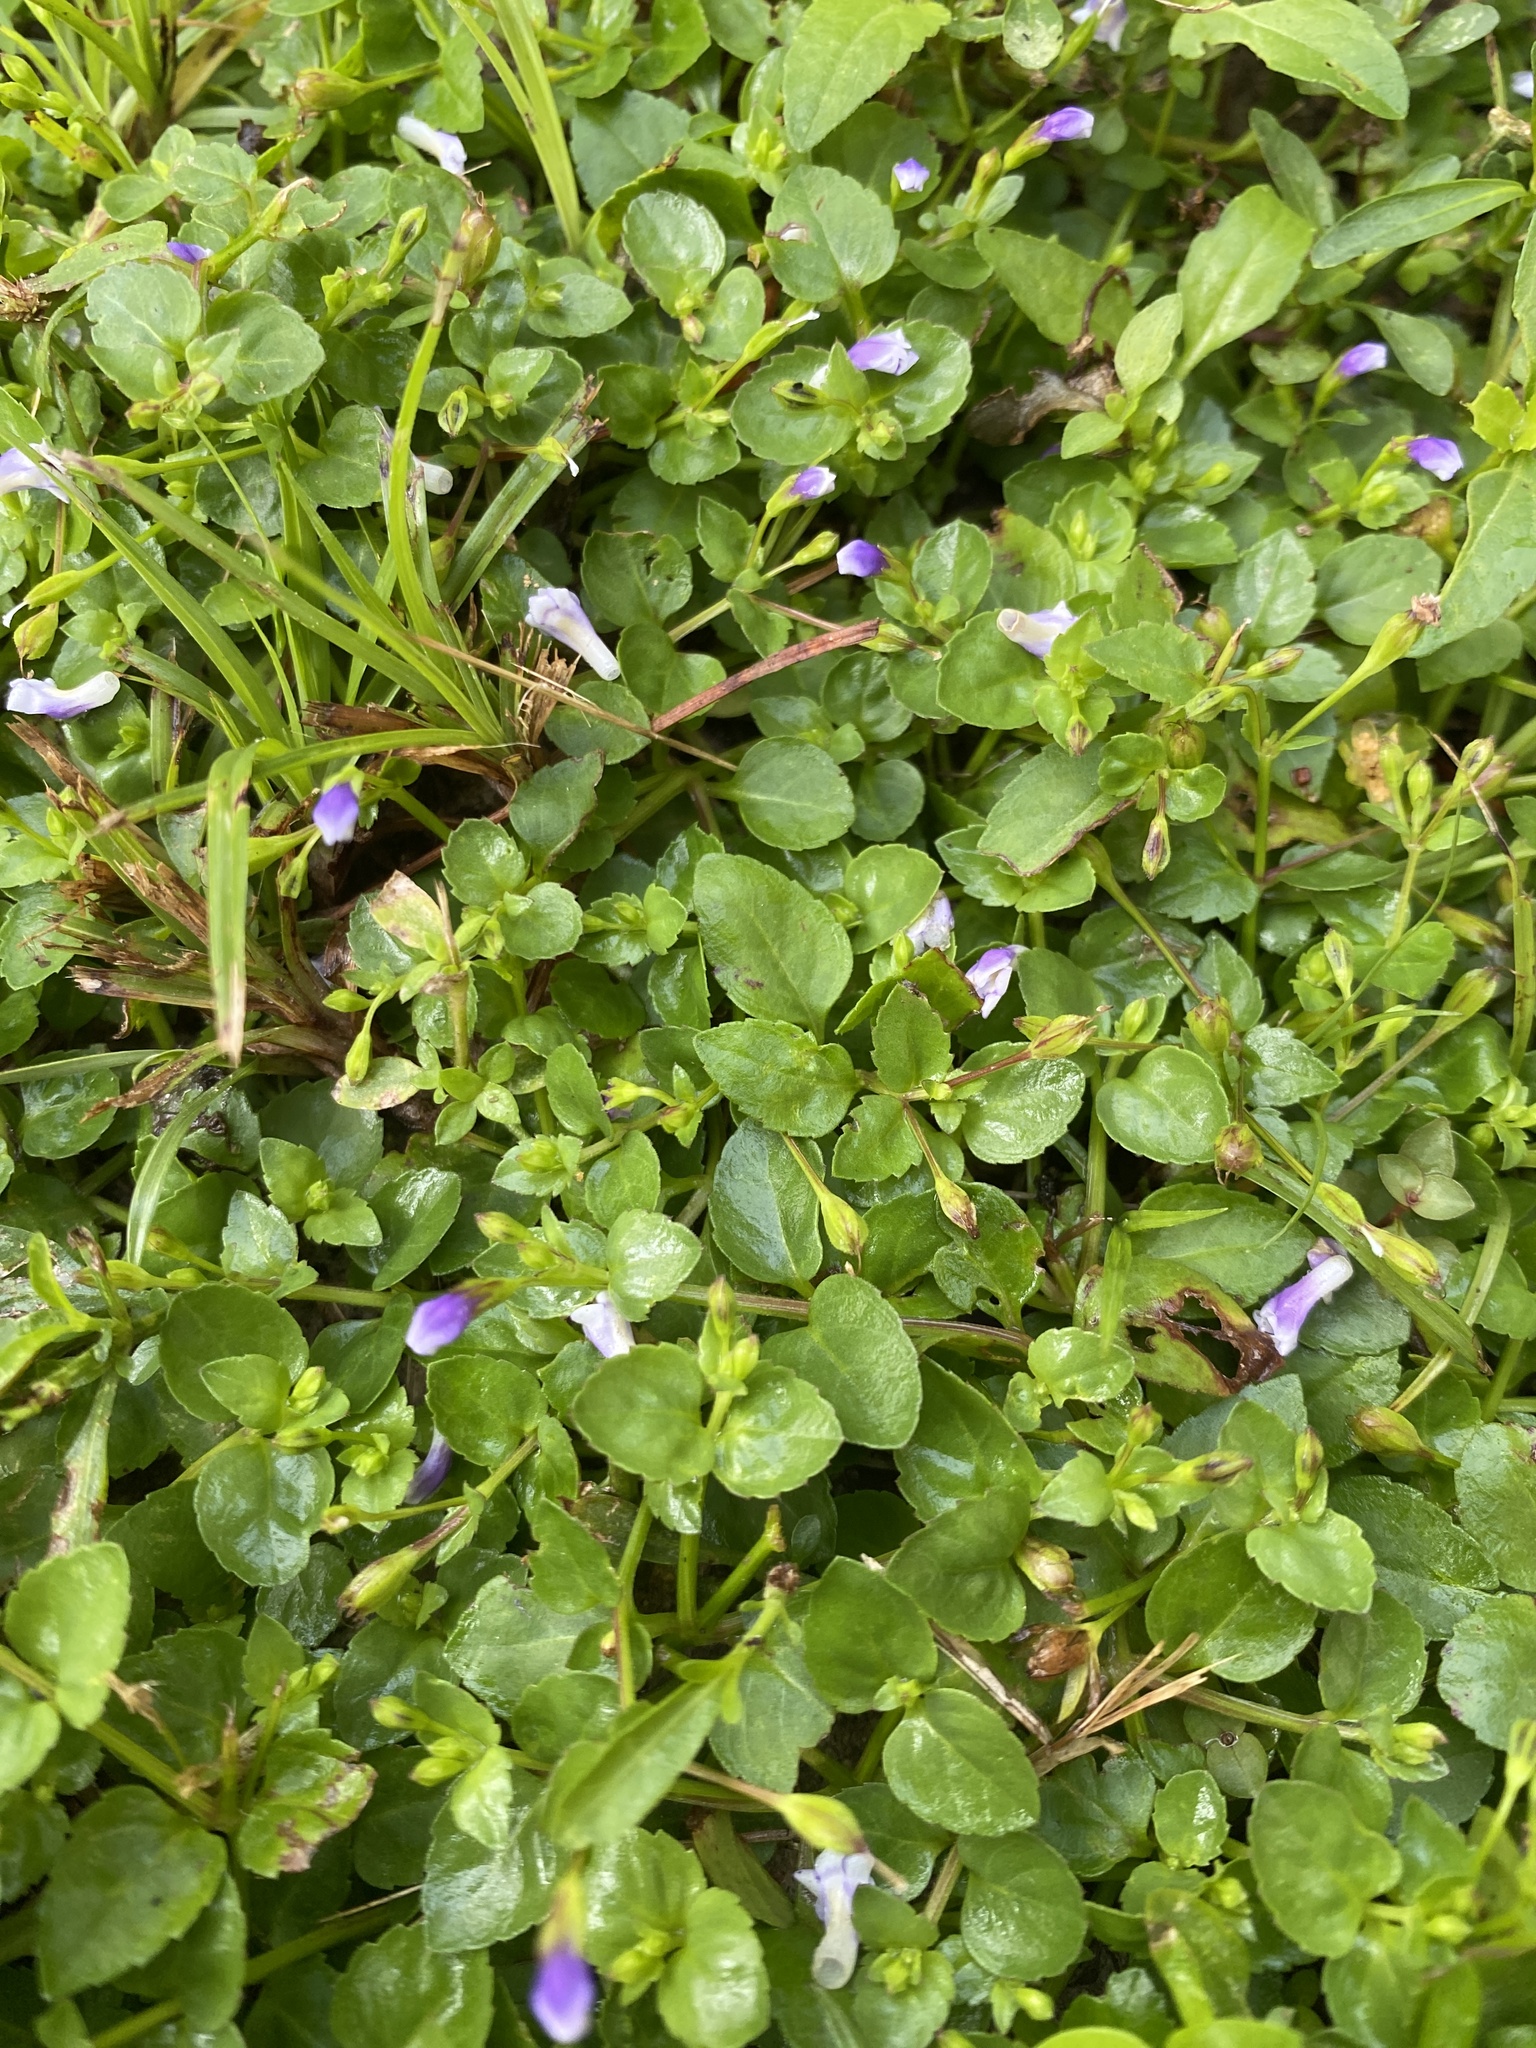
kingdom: Plantae
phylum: Tracheophyta
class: Magnoliopsida
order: Lamiales
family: Linderniaceae
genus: Torenia
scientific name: Torenia crustacea
